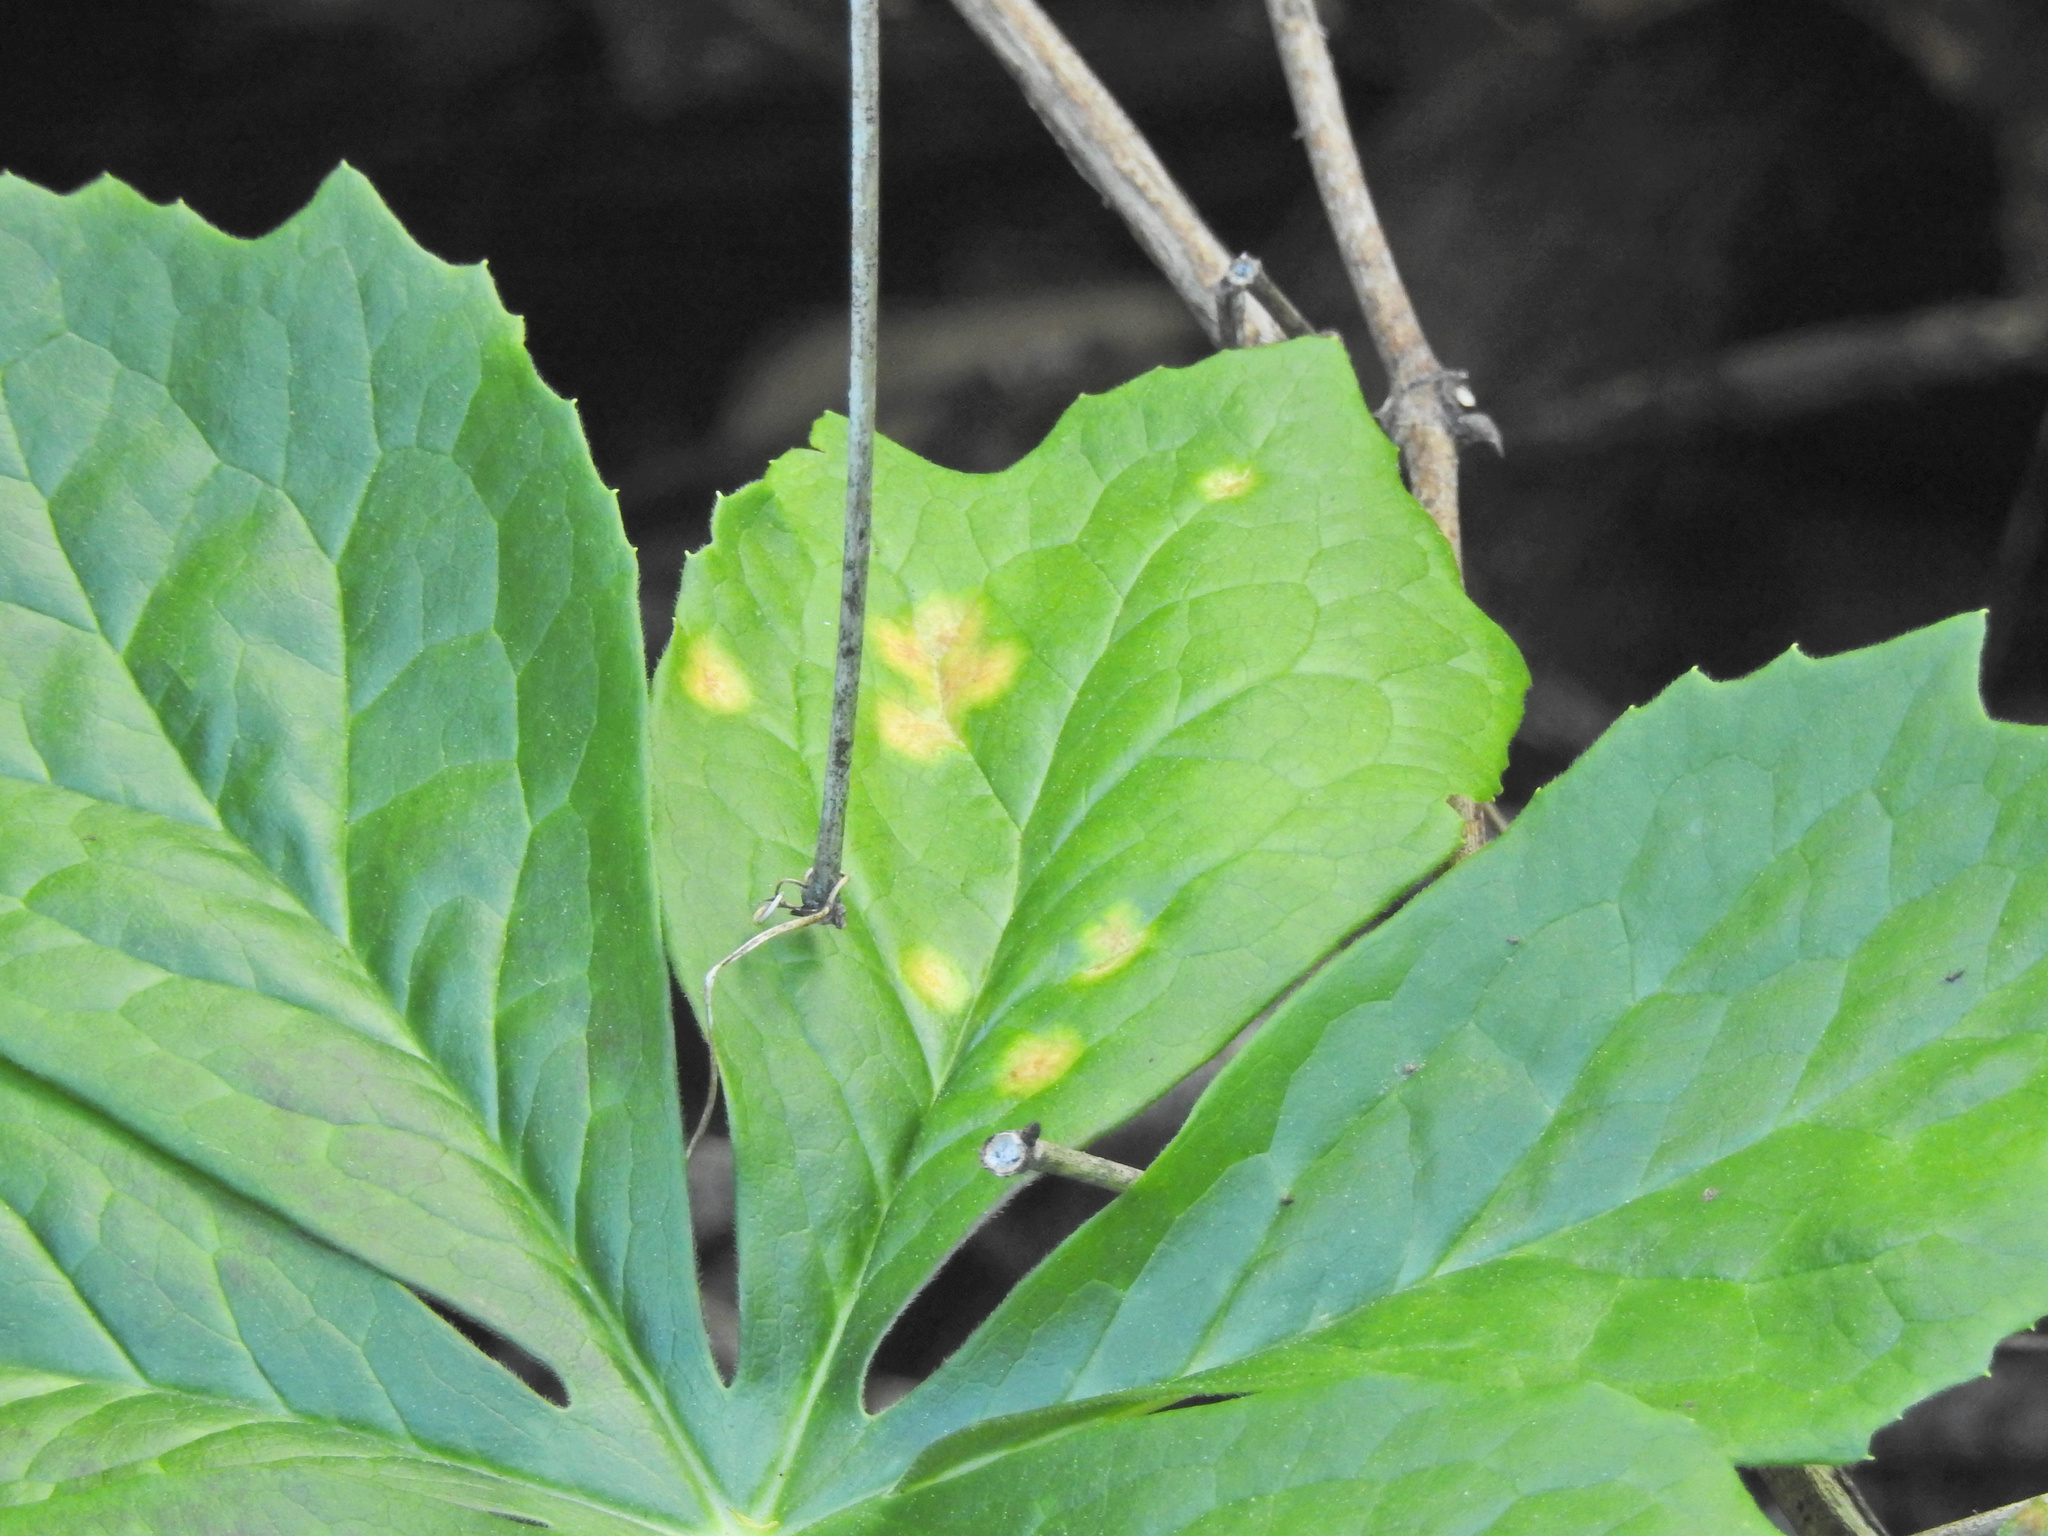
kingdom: Fungi
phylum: Basidiomycota
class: Pucciniomycetes
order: Pucciniales
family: Pucciniaceae
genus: Puccinia
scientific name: Puccinia podophylli
